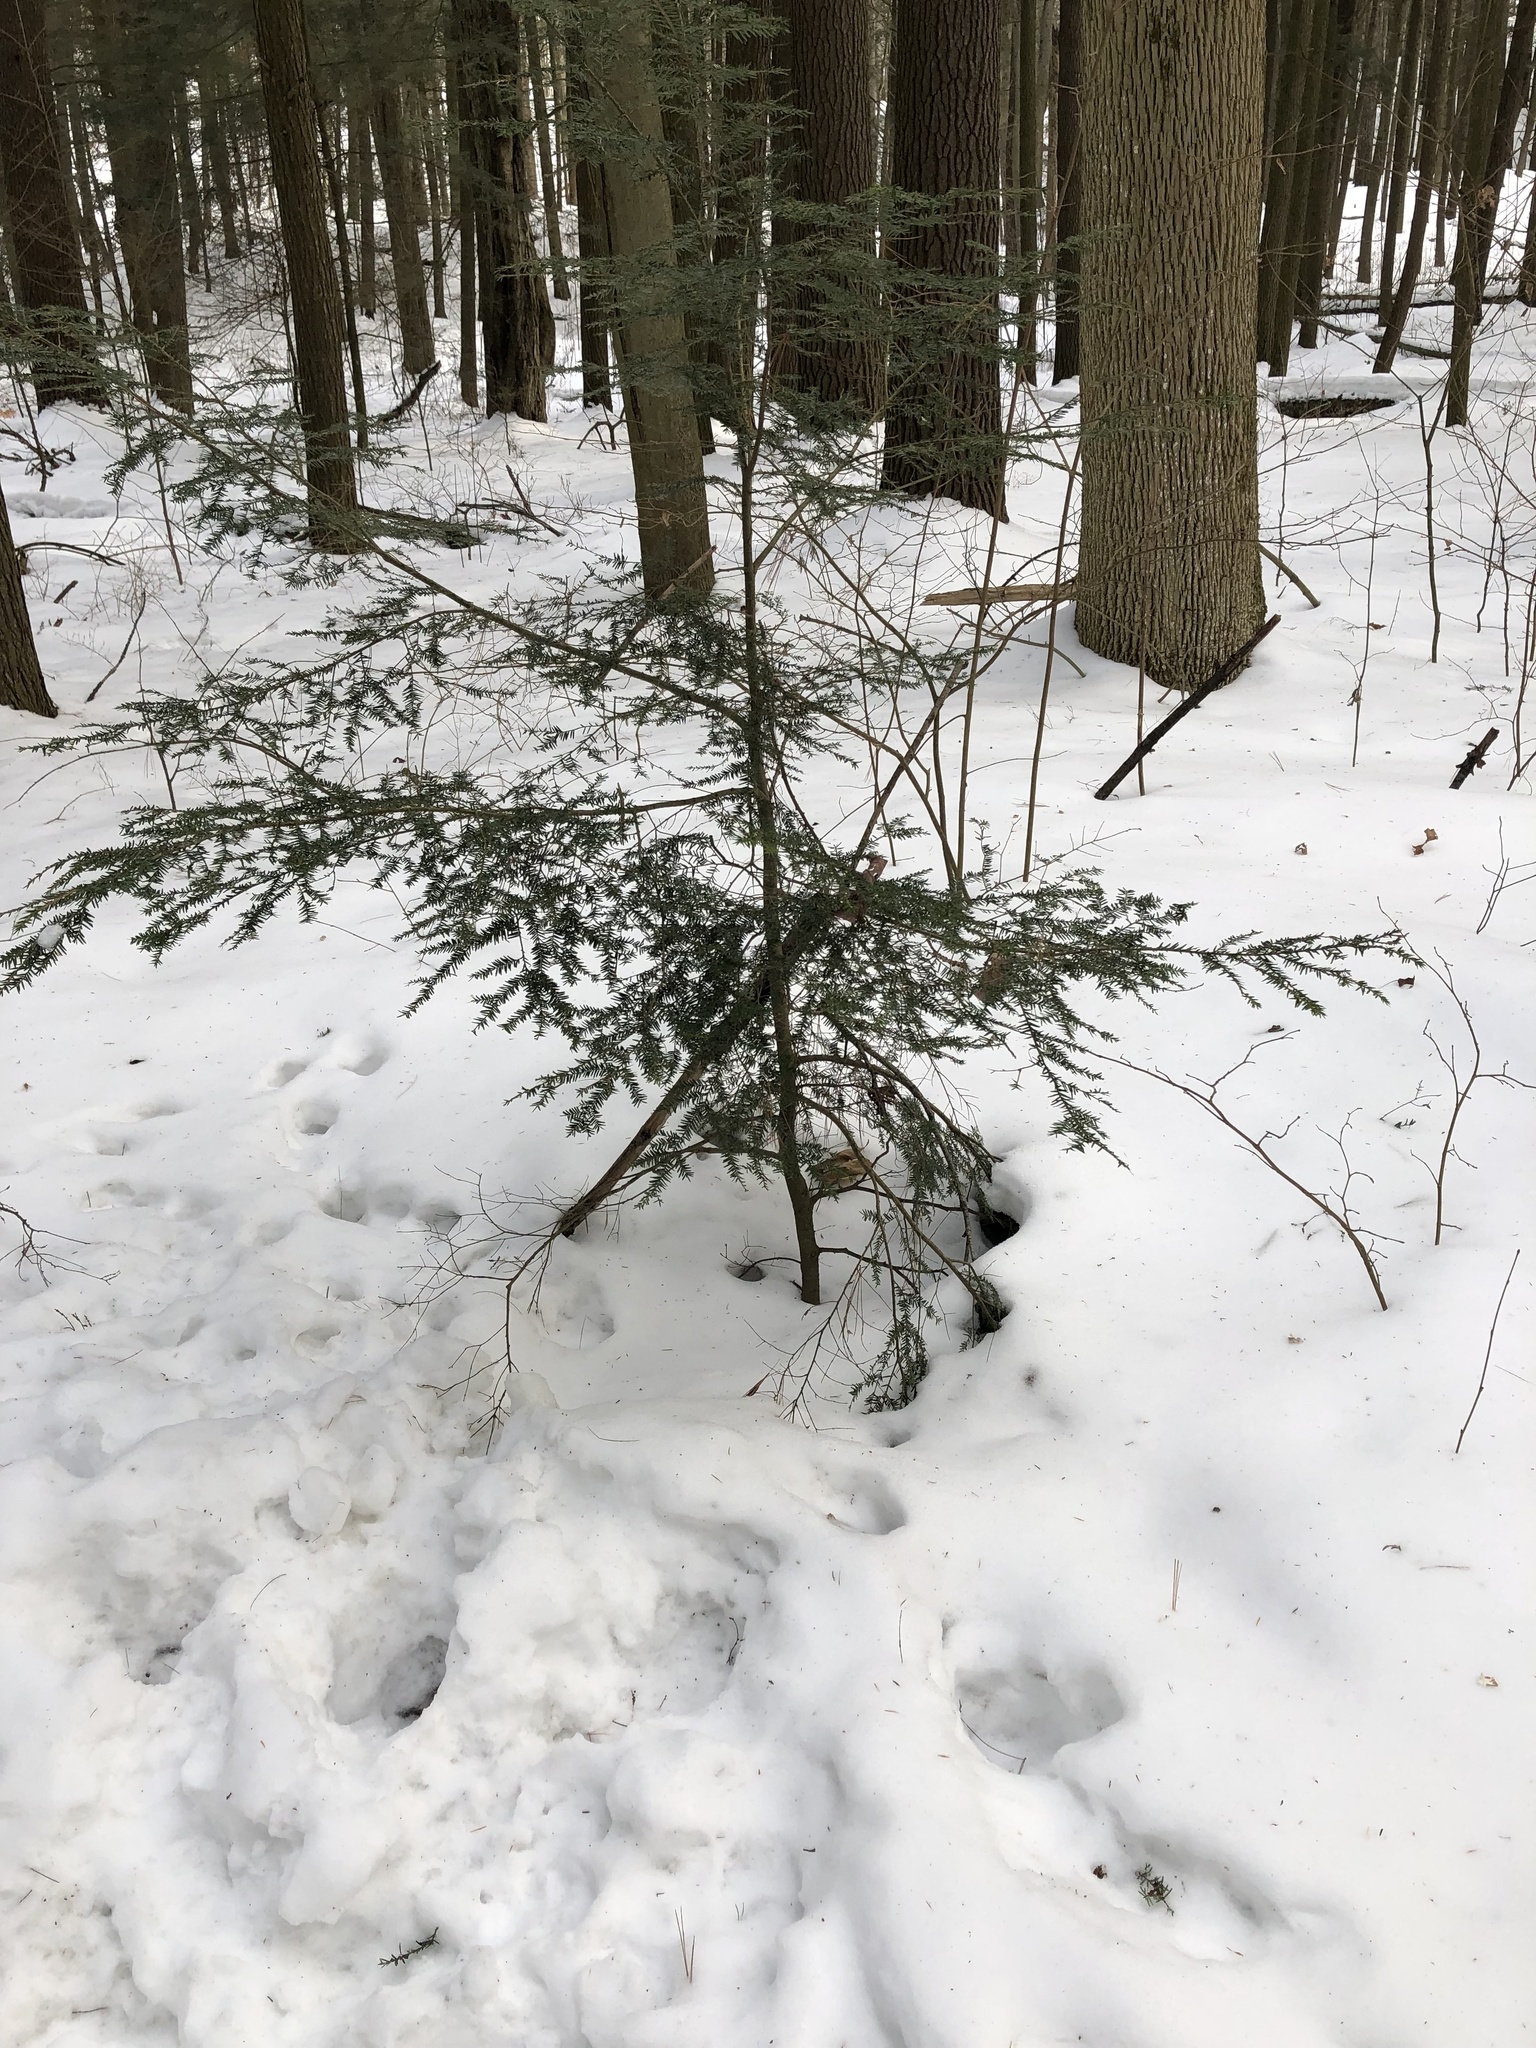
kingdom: Plantae
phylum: Tracheophyta
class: Pinopsida
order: Pinales
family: Pinaceae
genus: Tsuga
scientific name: Tsuga canadensis
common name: Eastern hemlock
